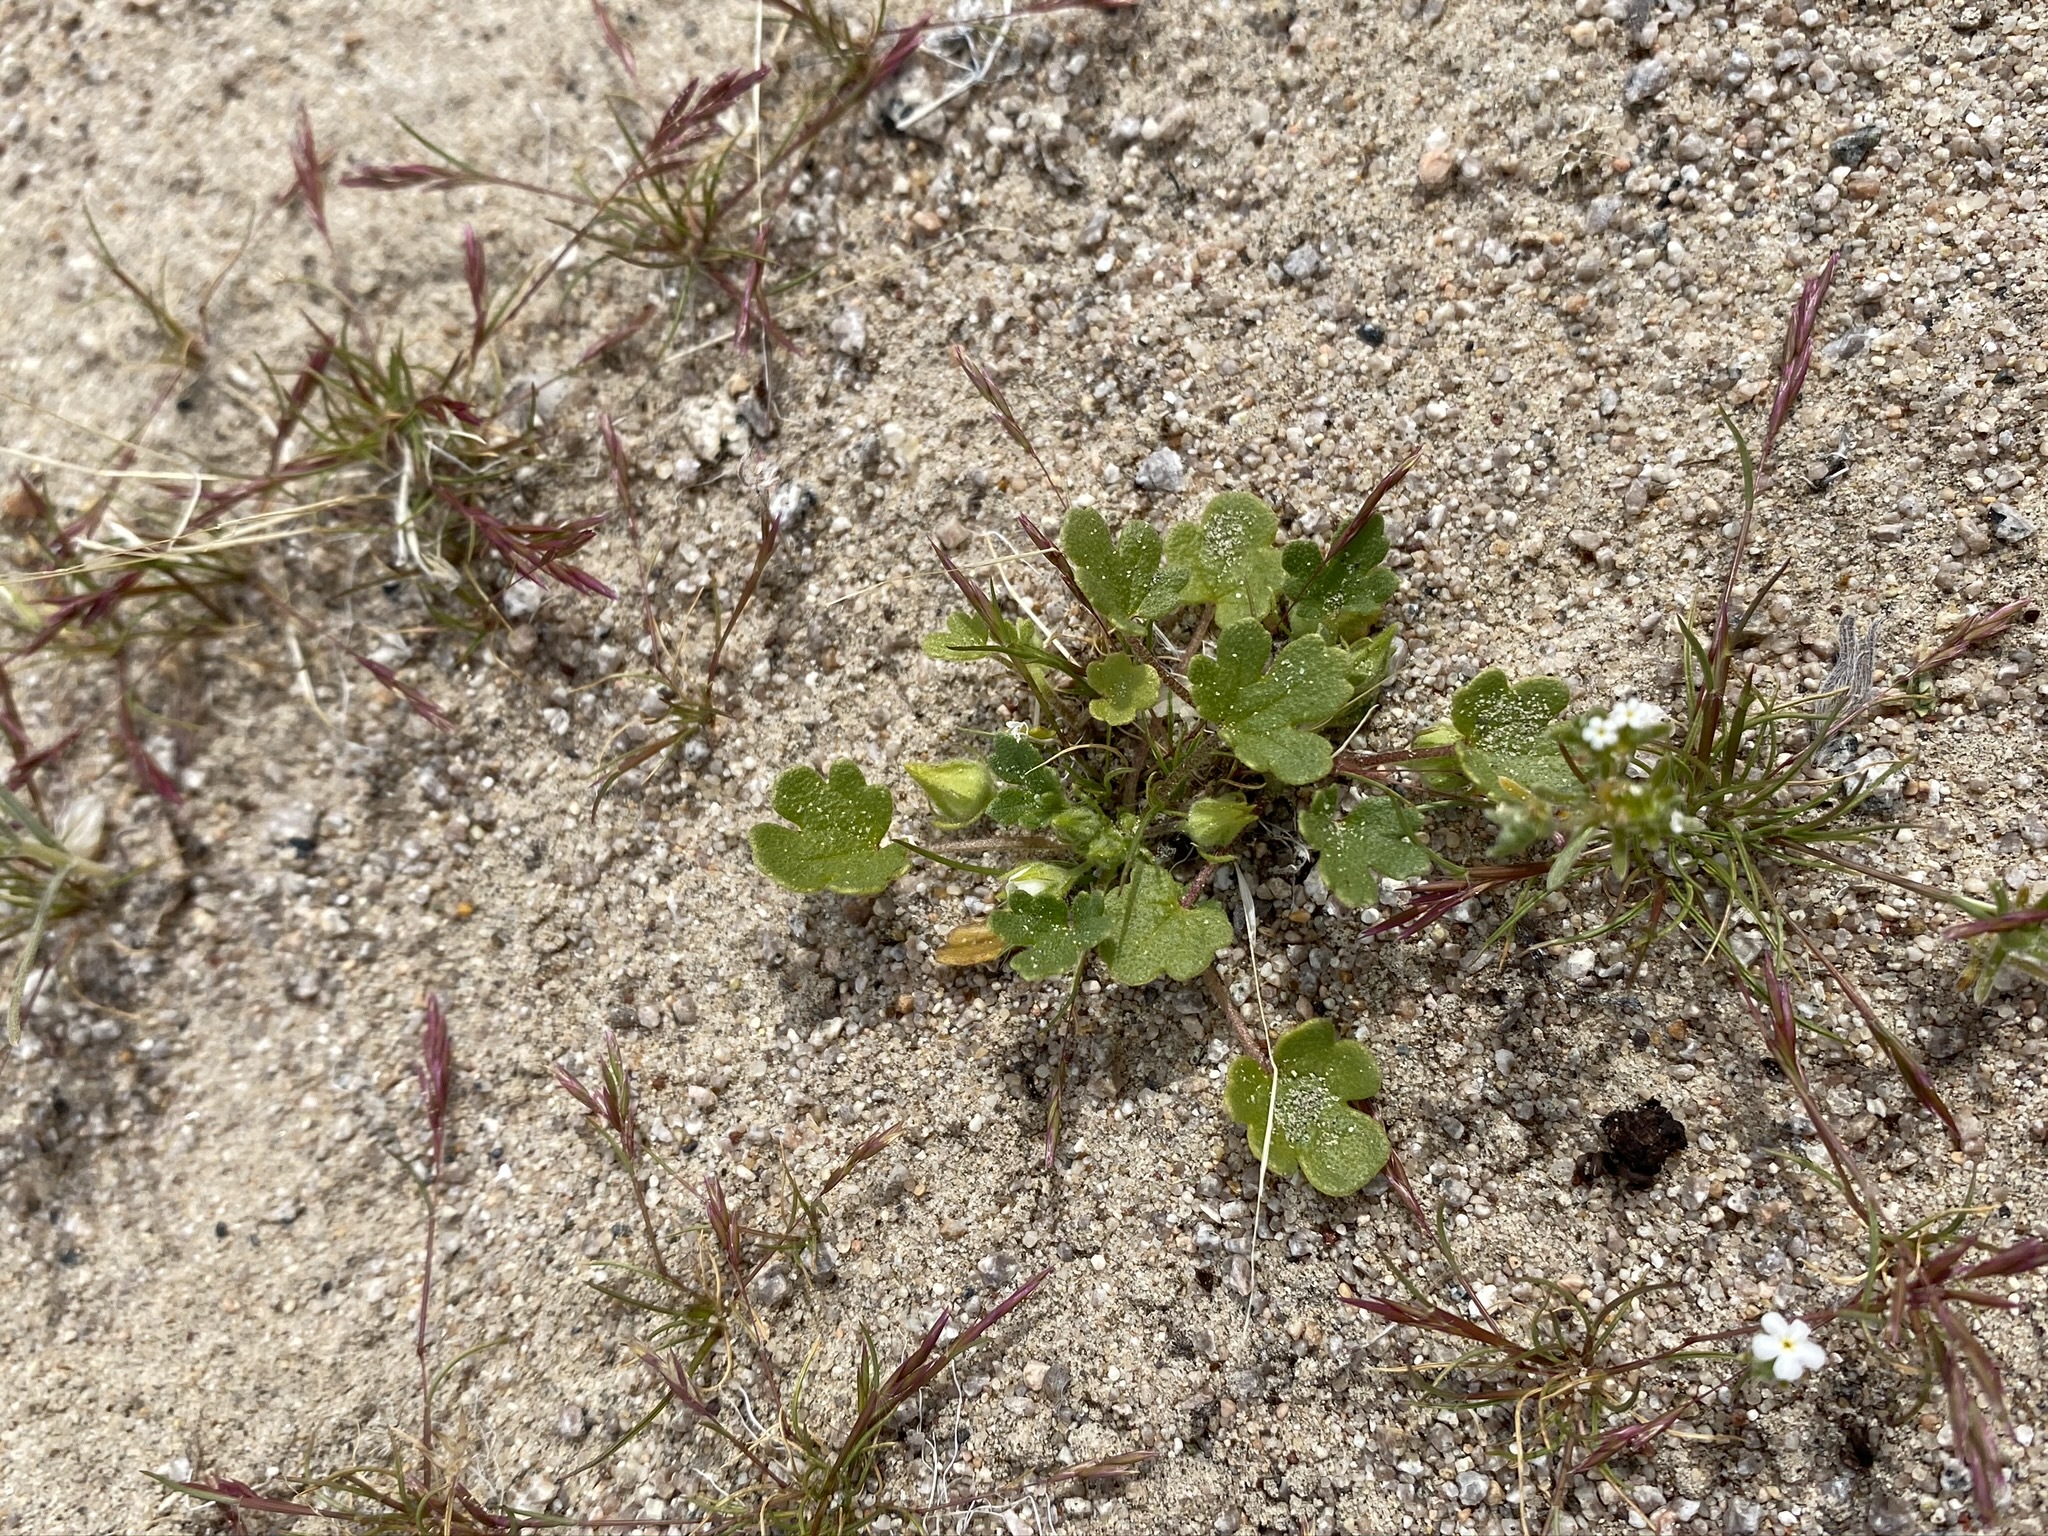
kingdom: Plantae
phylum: Tracheophyta
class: Magnoliopsida
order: Malvales
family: Malvaceae
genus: Eremalche
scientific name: Eremalche exilis
